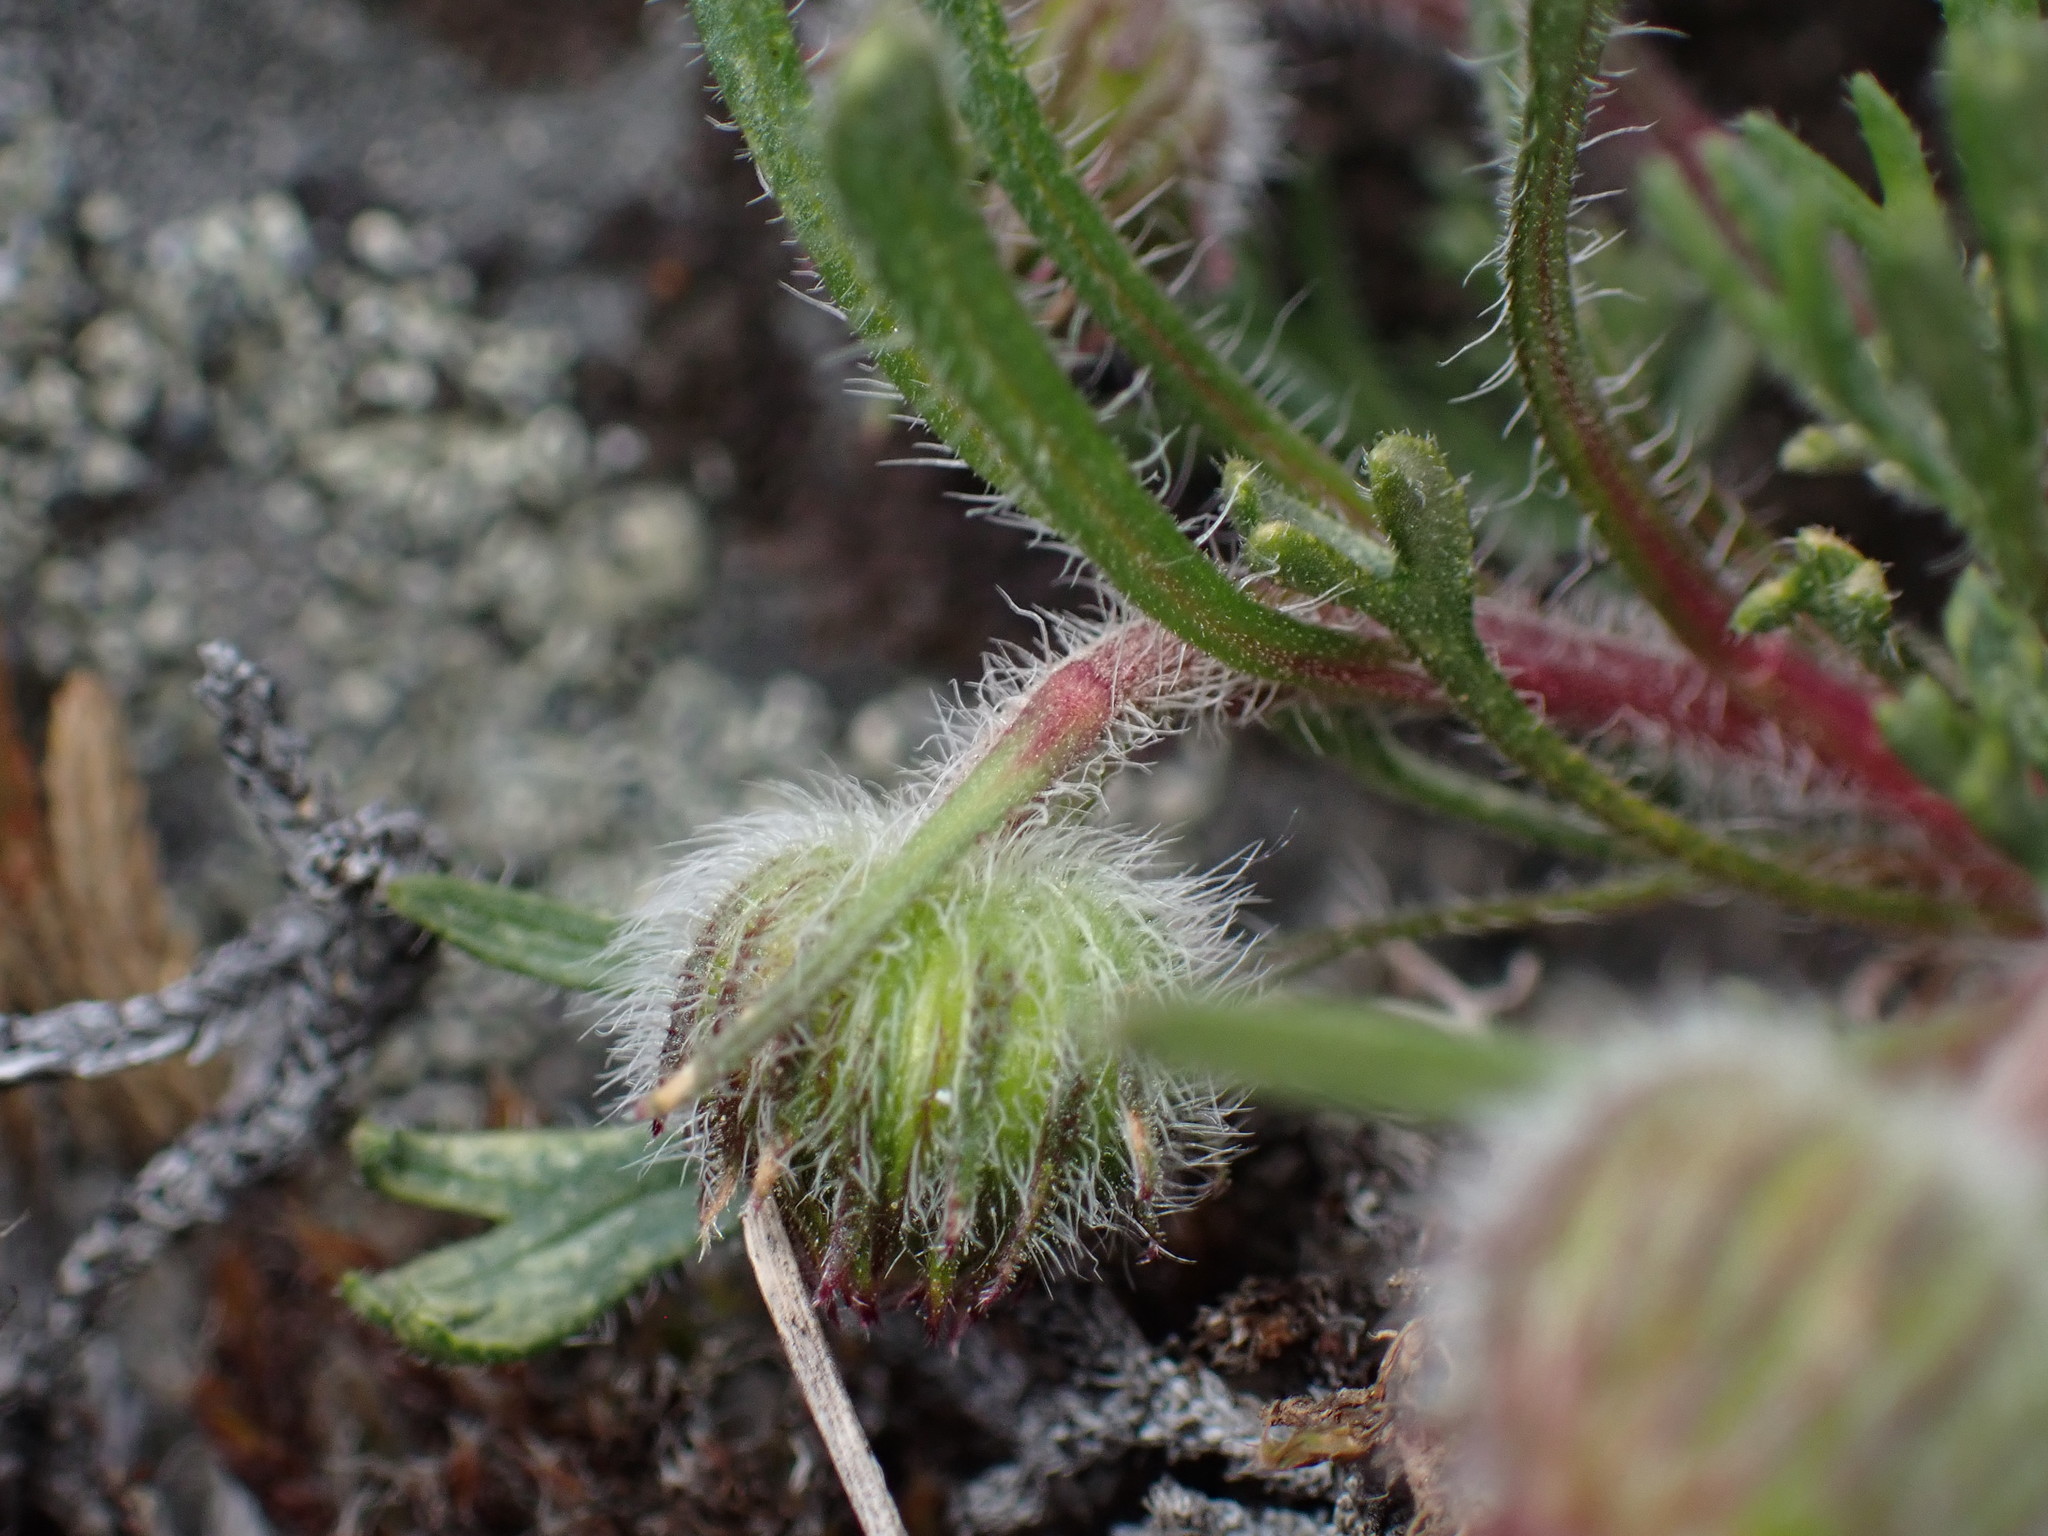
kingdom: Plantae
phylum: Tracheophyta
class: Magnoliopsida
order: Asterales
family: Asteraceae
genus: Erigeron
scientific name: Erigeron compositus
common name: Dwarf mountain fleabane
